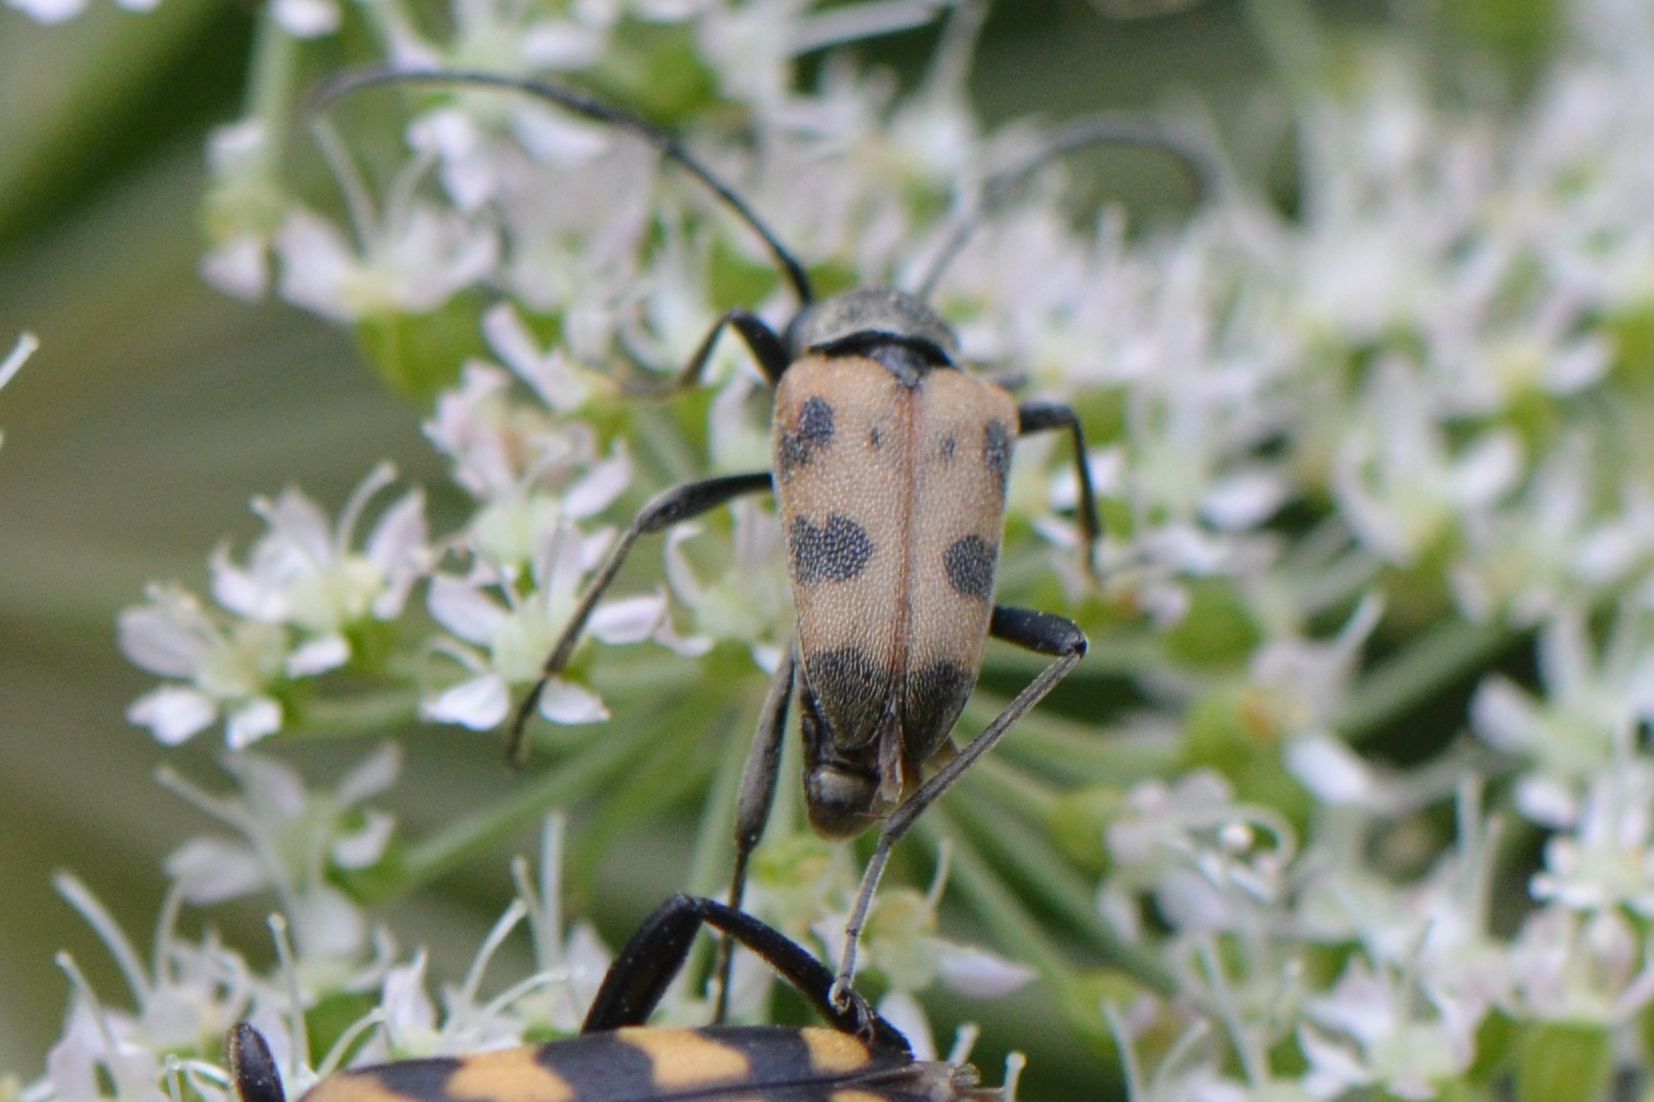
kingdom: Animalia
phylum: Arthropoda
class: Insecta
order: Coleoptera
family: Cerambycidae
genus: Pachytodes
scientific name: Pachytodes cerambyciformis
